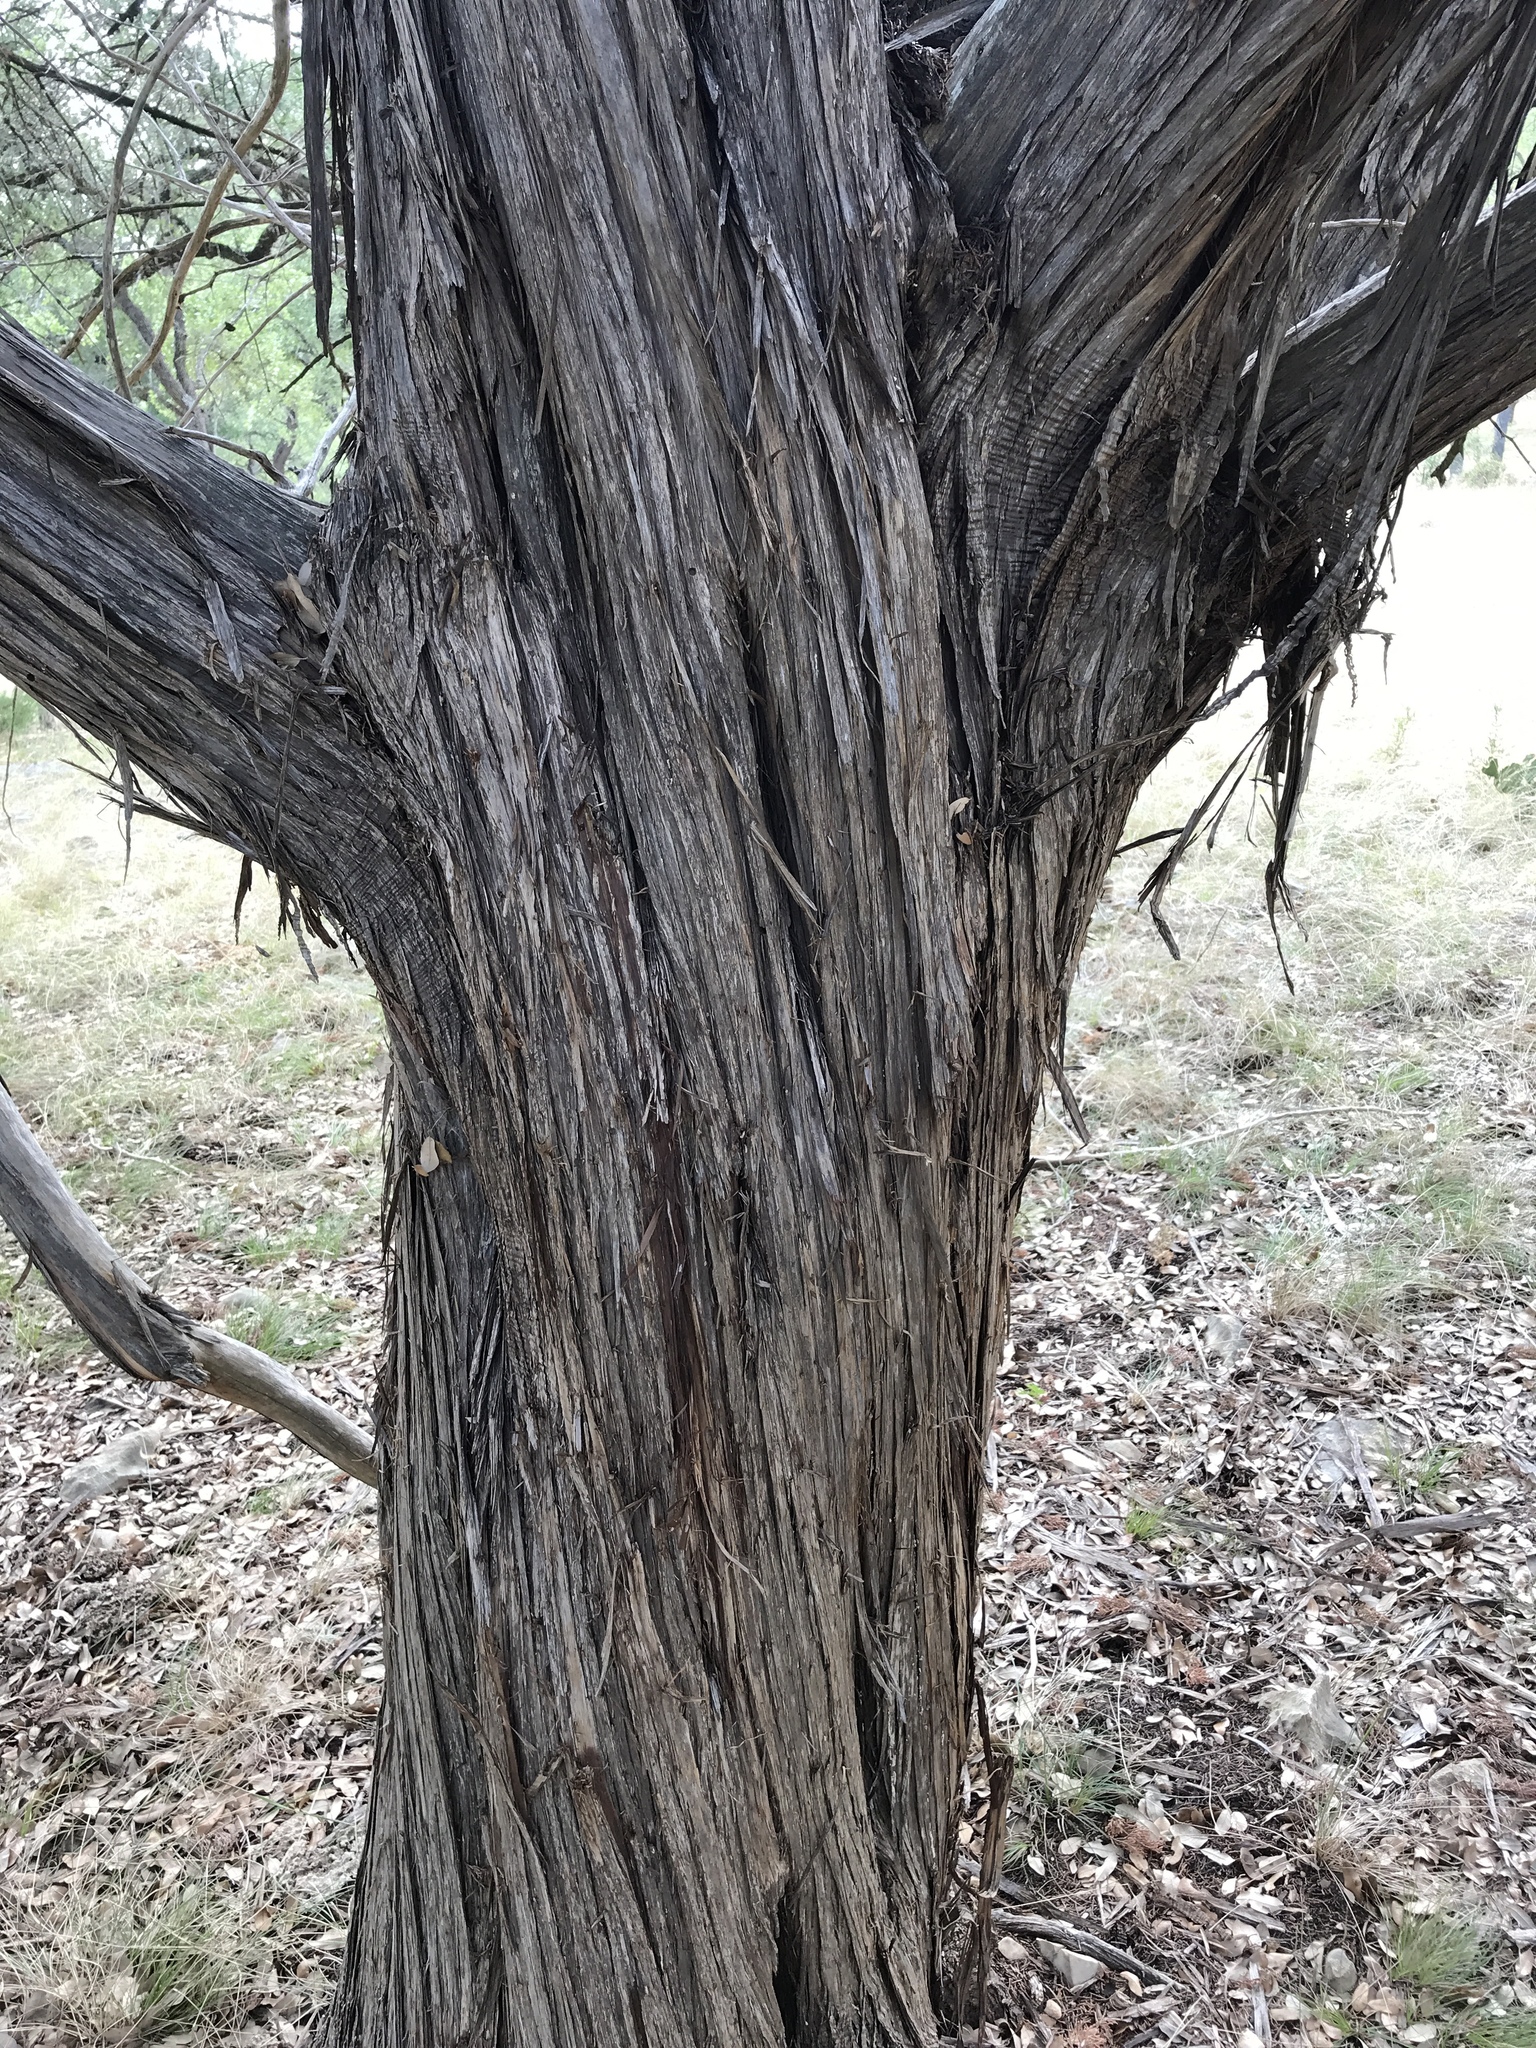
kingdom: Plantae
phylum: Tracheophyta
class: Pinopsida
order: Pinales
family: Cupressaceae
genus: Juniperus
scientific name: Juniperus ashei
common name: Mexican juniper
